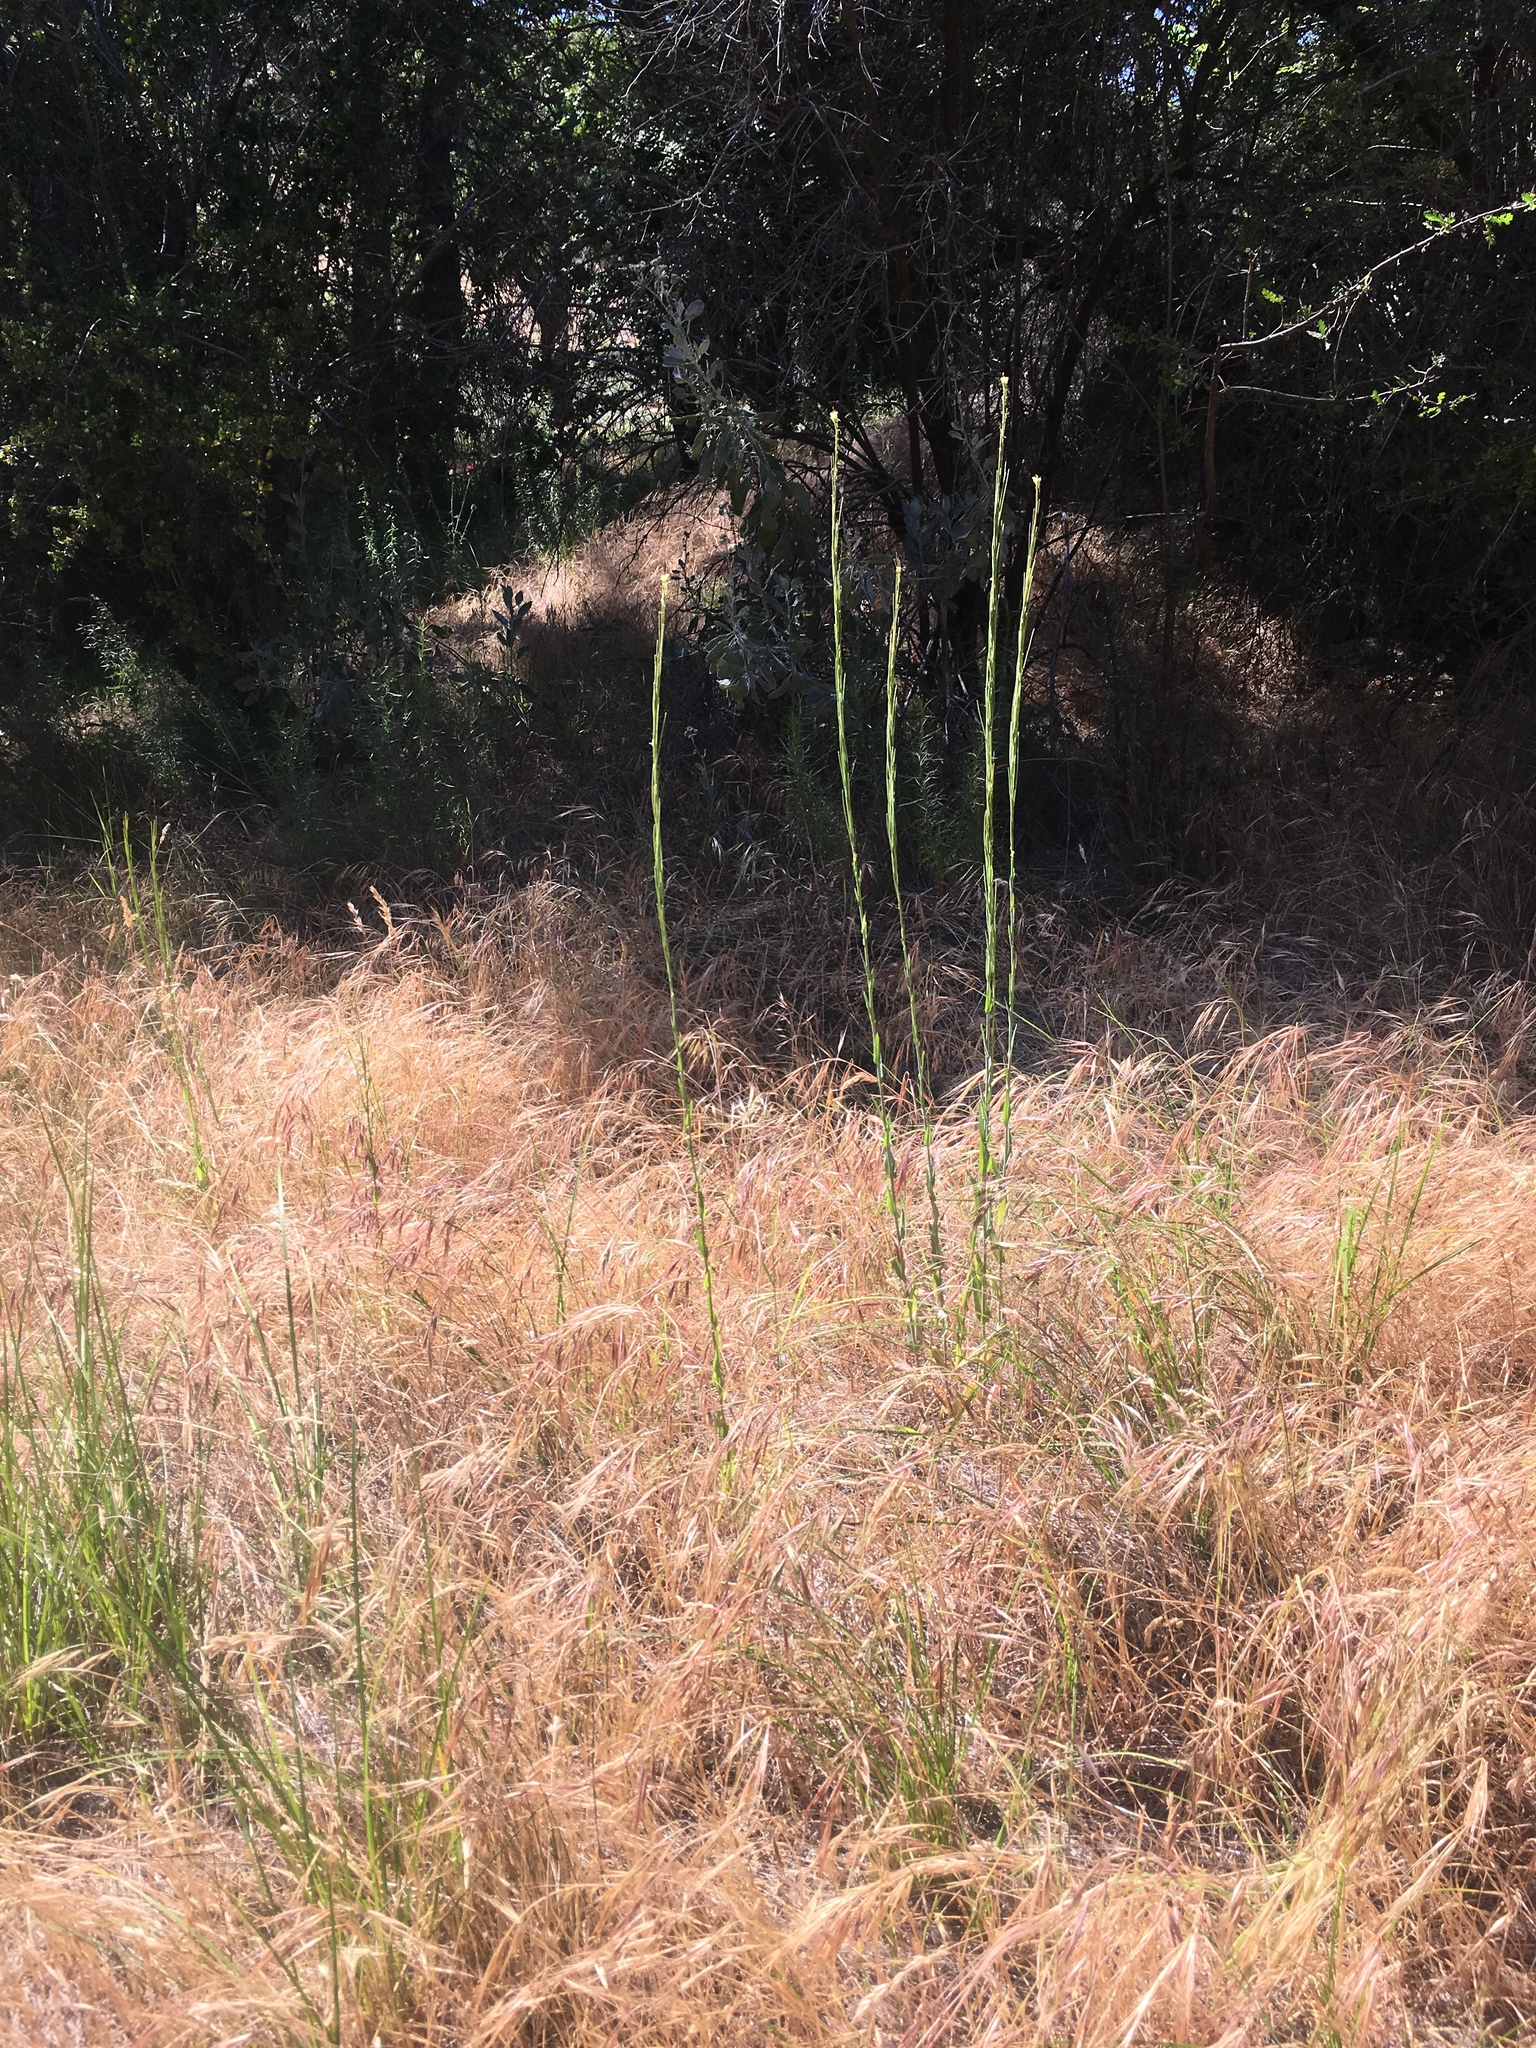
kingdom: Plantae
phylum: Tracheophyta
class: Magnoliopsida
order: Brassicales
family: Brassicaceae
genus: Turritis
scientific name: Turritis glabra
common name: Tower rockcress
